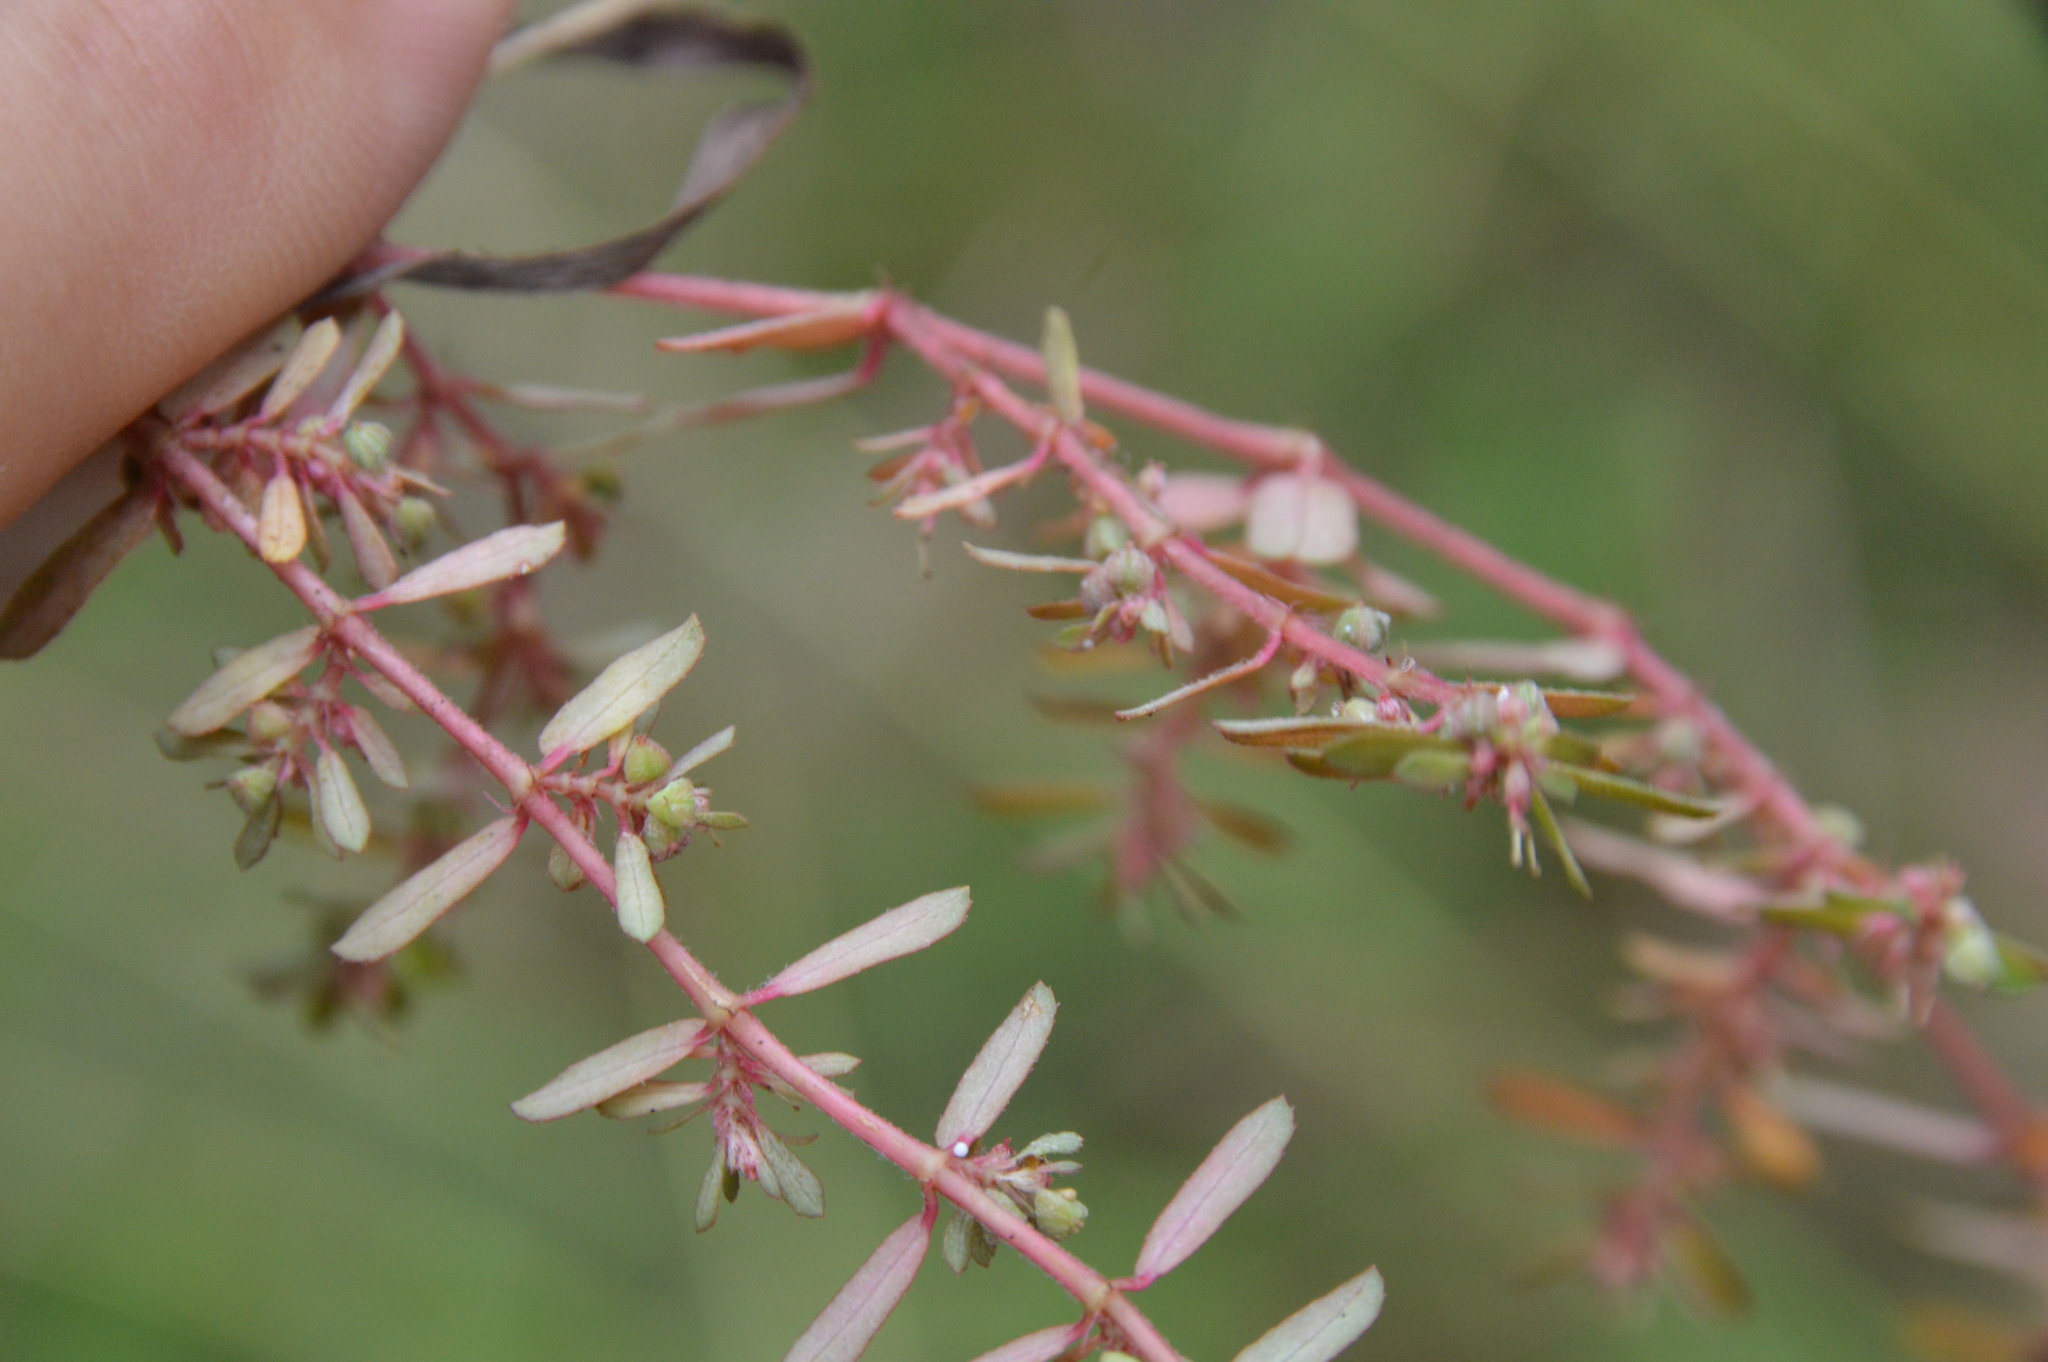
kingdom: Plantae
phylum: Tracheophyta
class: Magnoliopsida
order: Malpighiales
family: Euphorbiaceae
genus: Euphorbia
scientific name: Euphorbia maculata
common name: Spotted spurge
